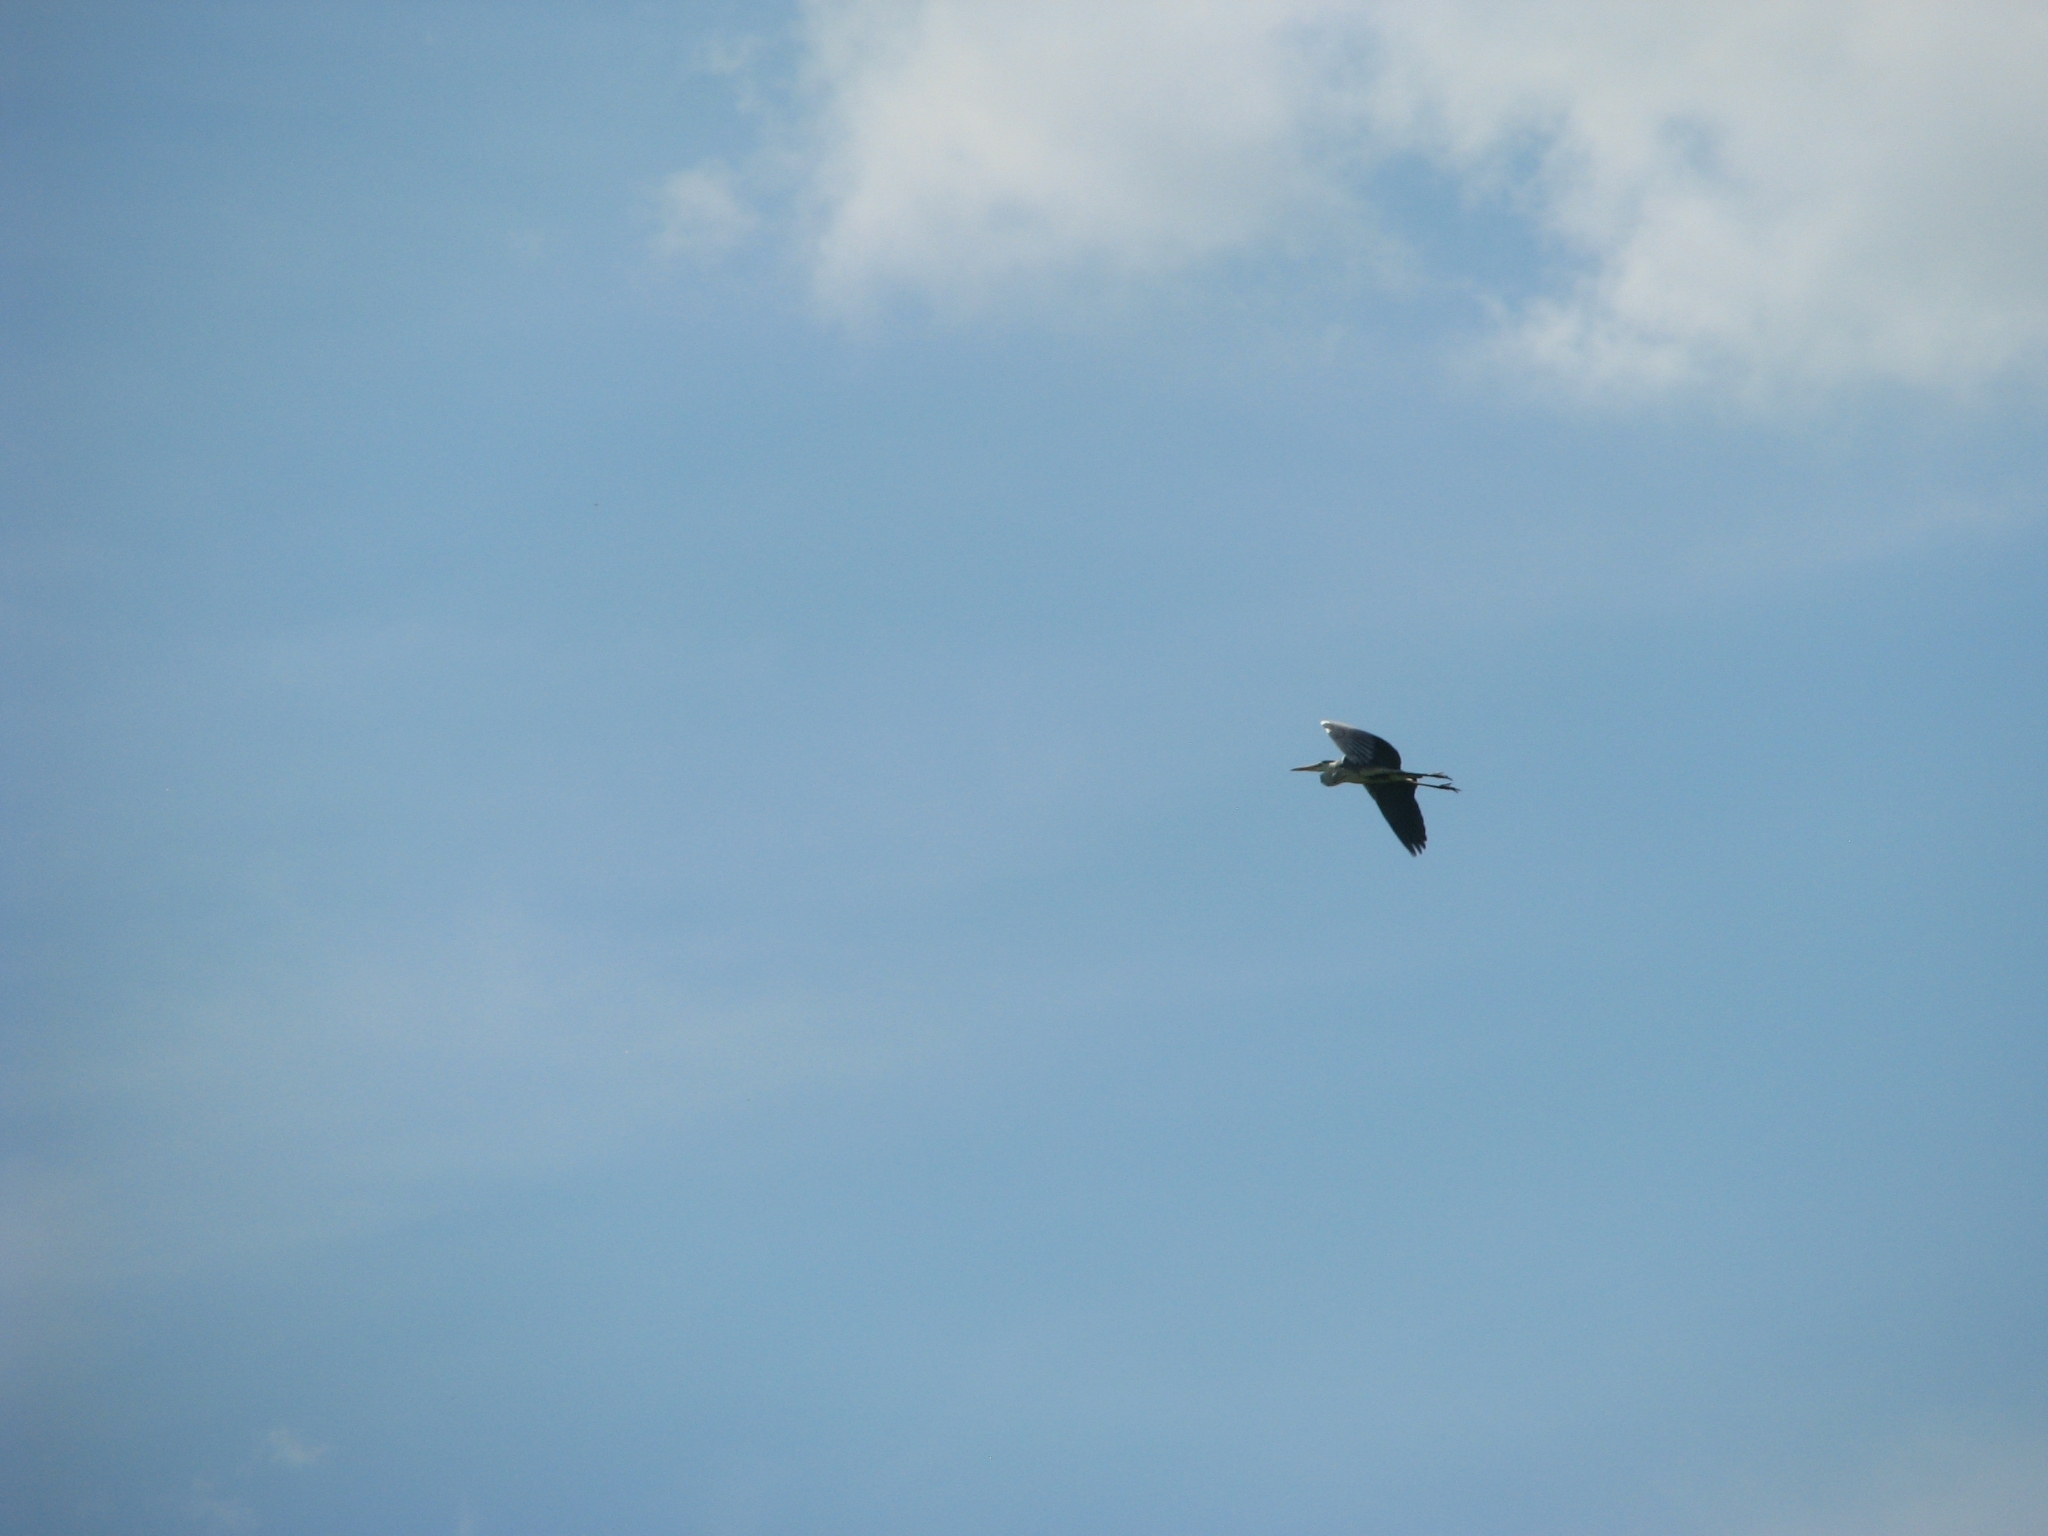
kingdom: Animalia
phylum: Chordata
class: Aves
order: Pelecaniformes
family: Ardeidae
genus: Ardea
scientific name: Ardea cinerea
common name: Grey heron
